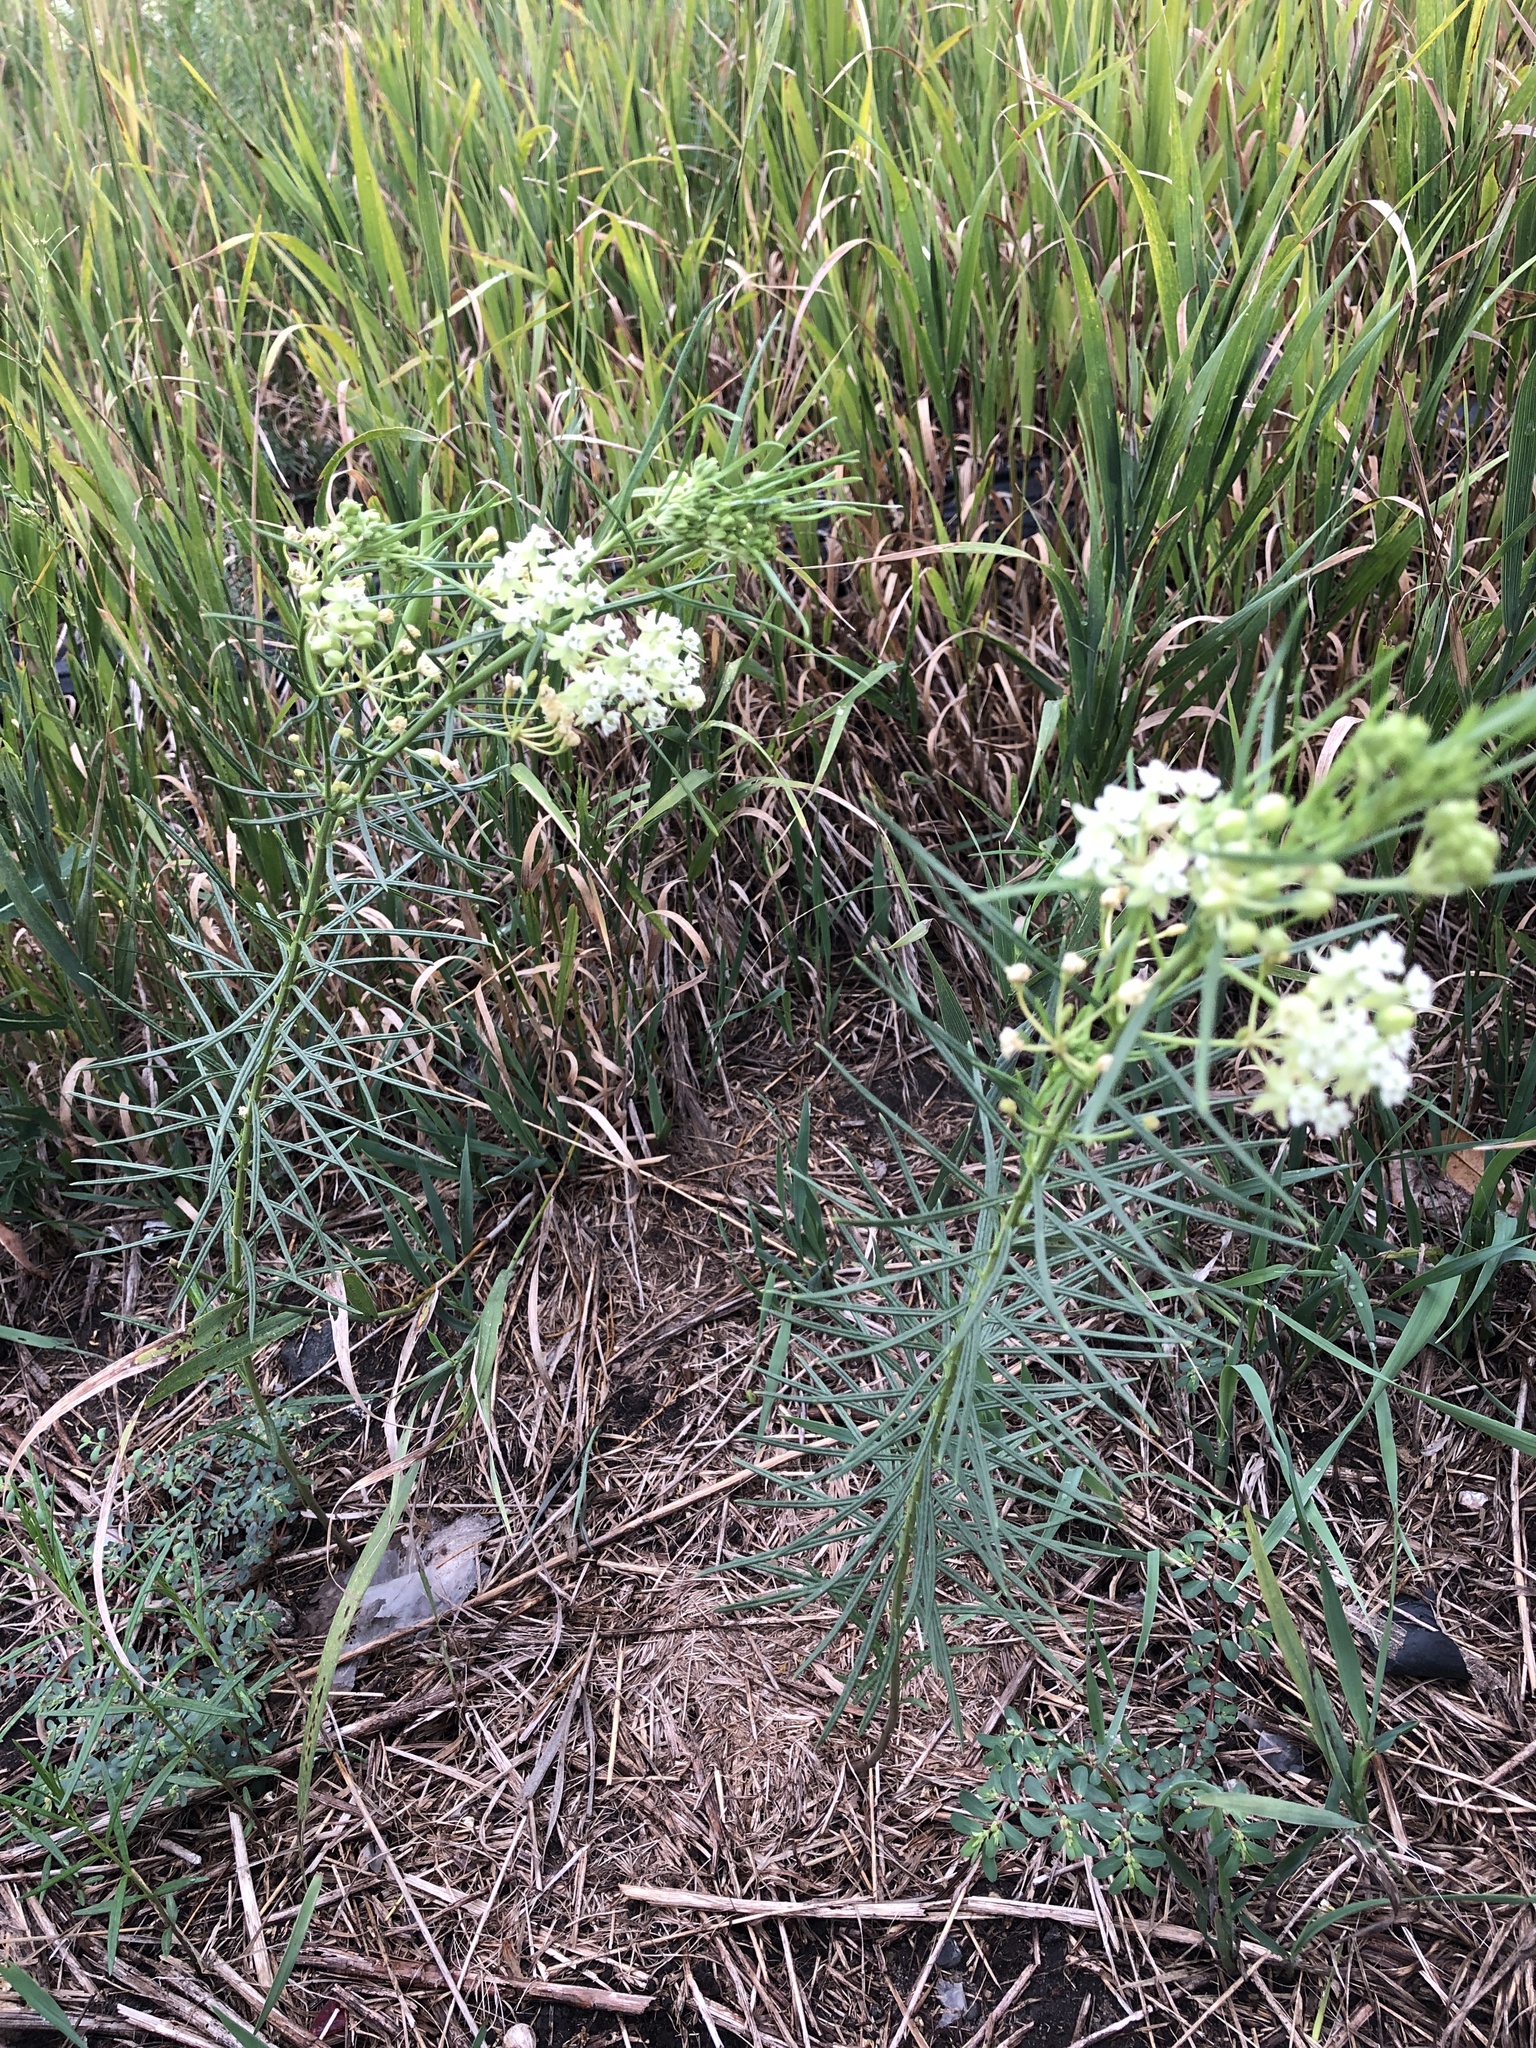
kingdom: Plantae
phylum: Tracheophyta
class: Magnoliopsida
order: Gentianales
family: Apocynaceae
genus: Asclepias
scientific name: Asclepias verticillata
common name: Eastern whorled milkweed
